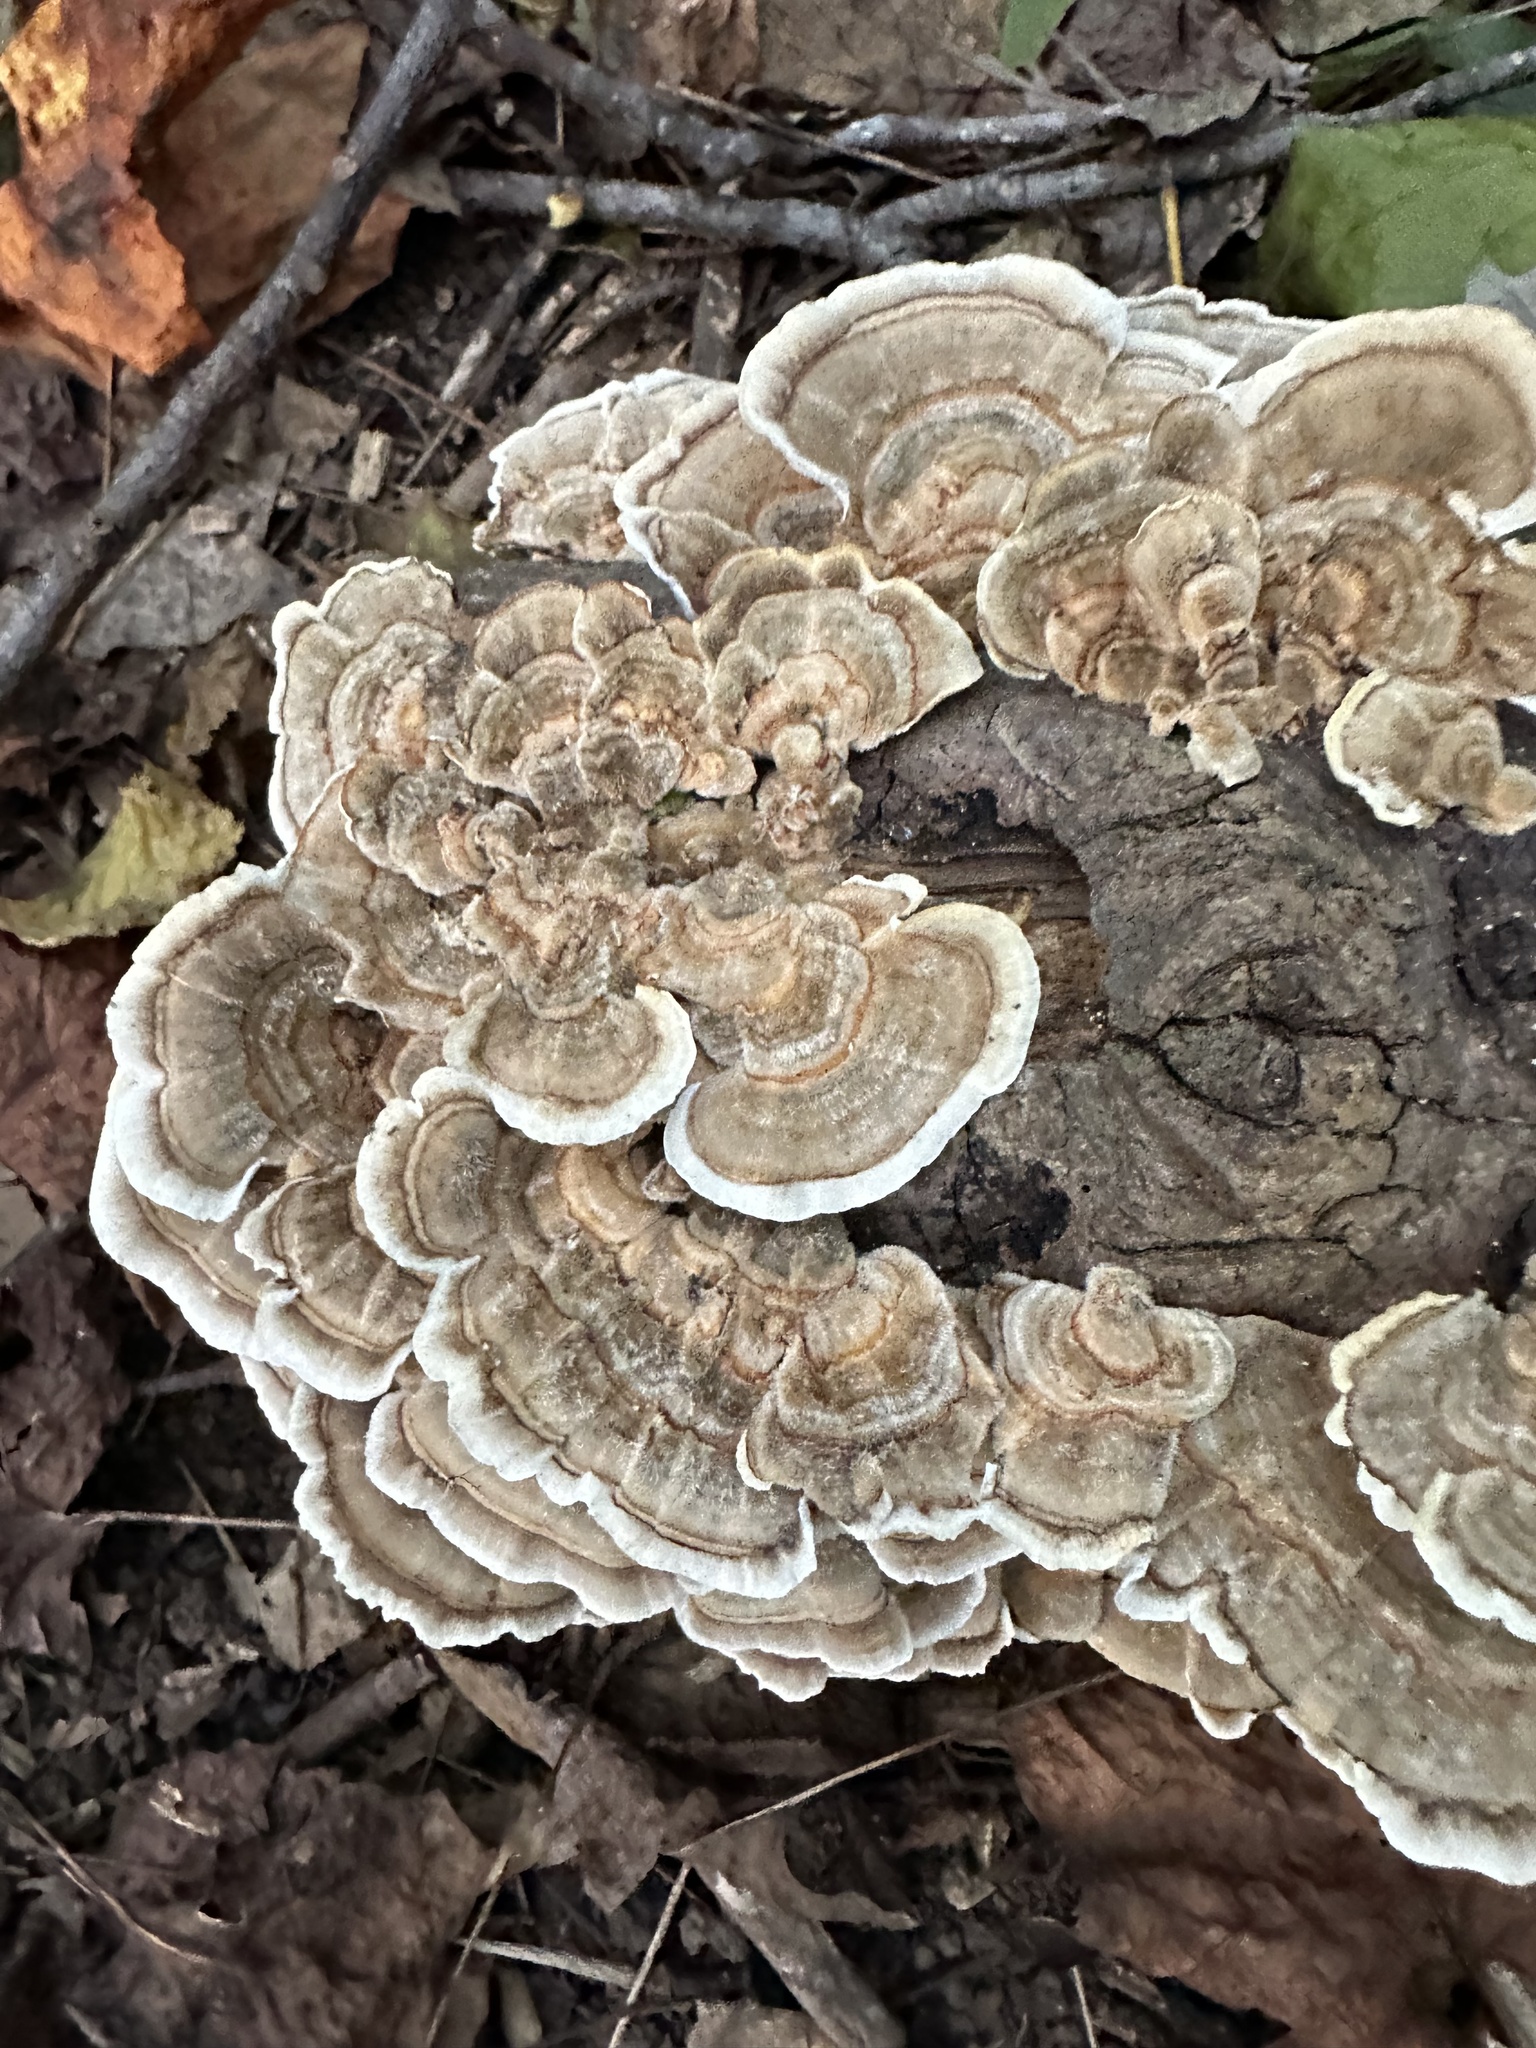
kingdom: Fungi
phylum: Basidiomycota
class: Agaricomycetes
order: Polyporales
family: Polyporaceae
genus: Trametes
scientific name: Trametes versicolor
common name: Turkeytail
